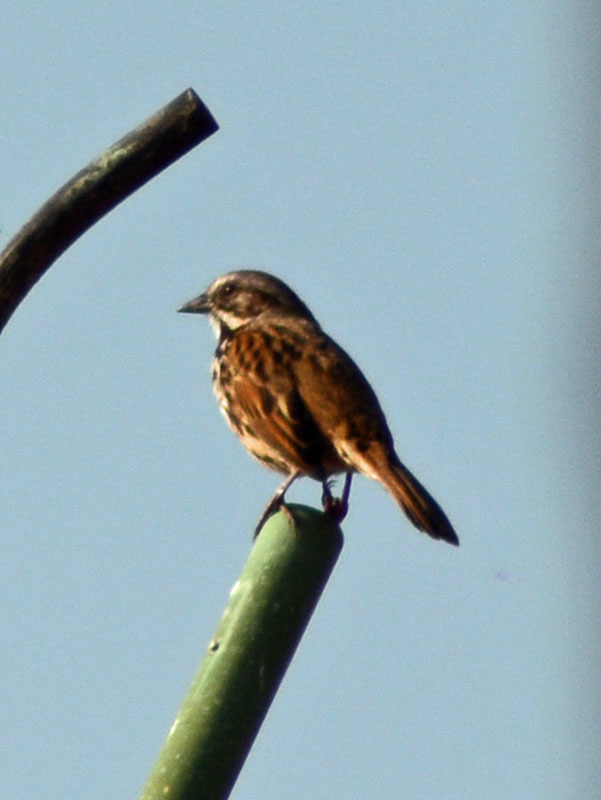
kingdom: Animalia
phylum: Chordata
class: Aves
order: Passeriformes
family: Passerellidae
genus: Melospiza
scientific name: Melospiza melodia
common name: Song sparrow
